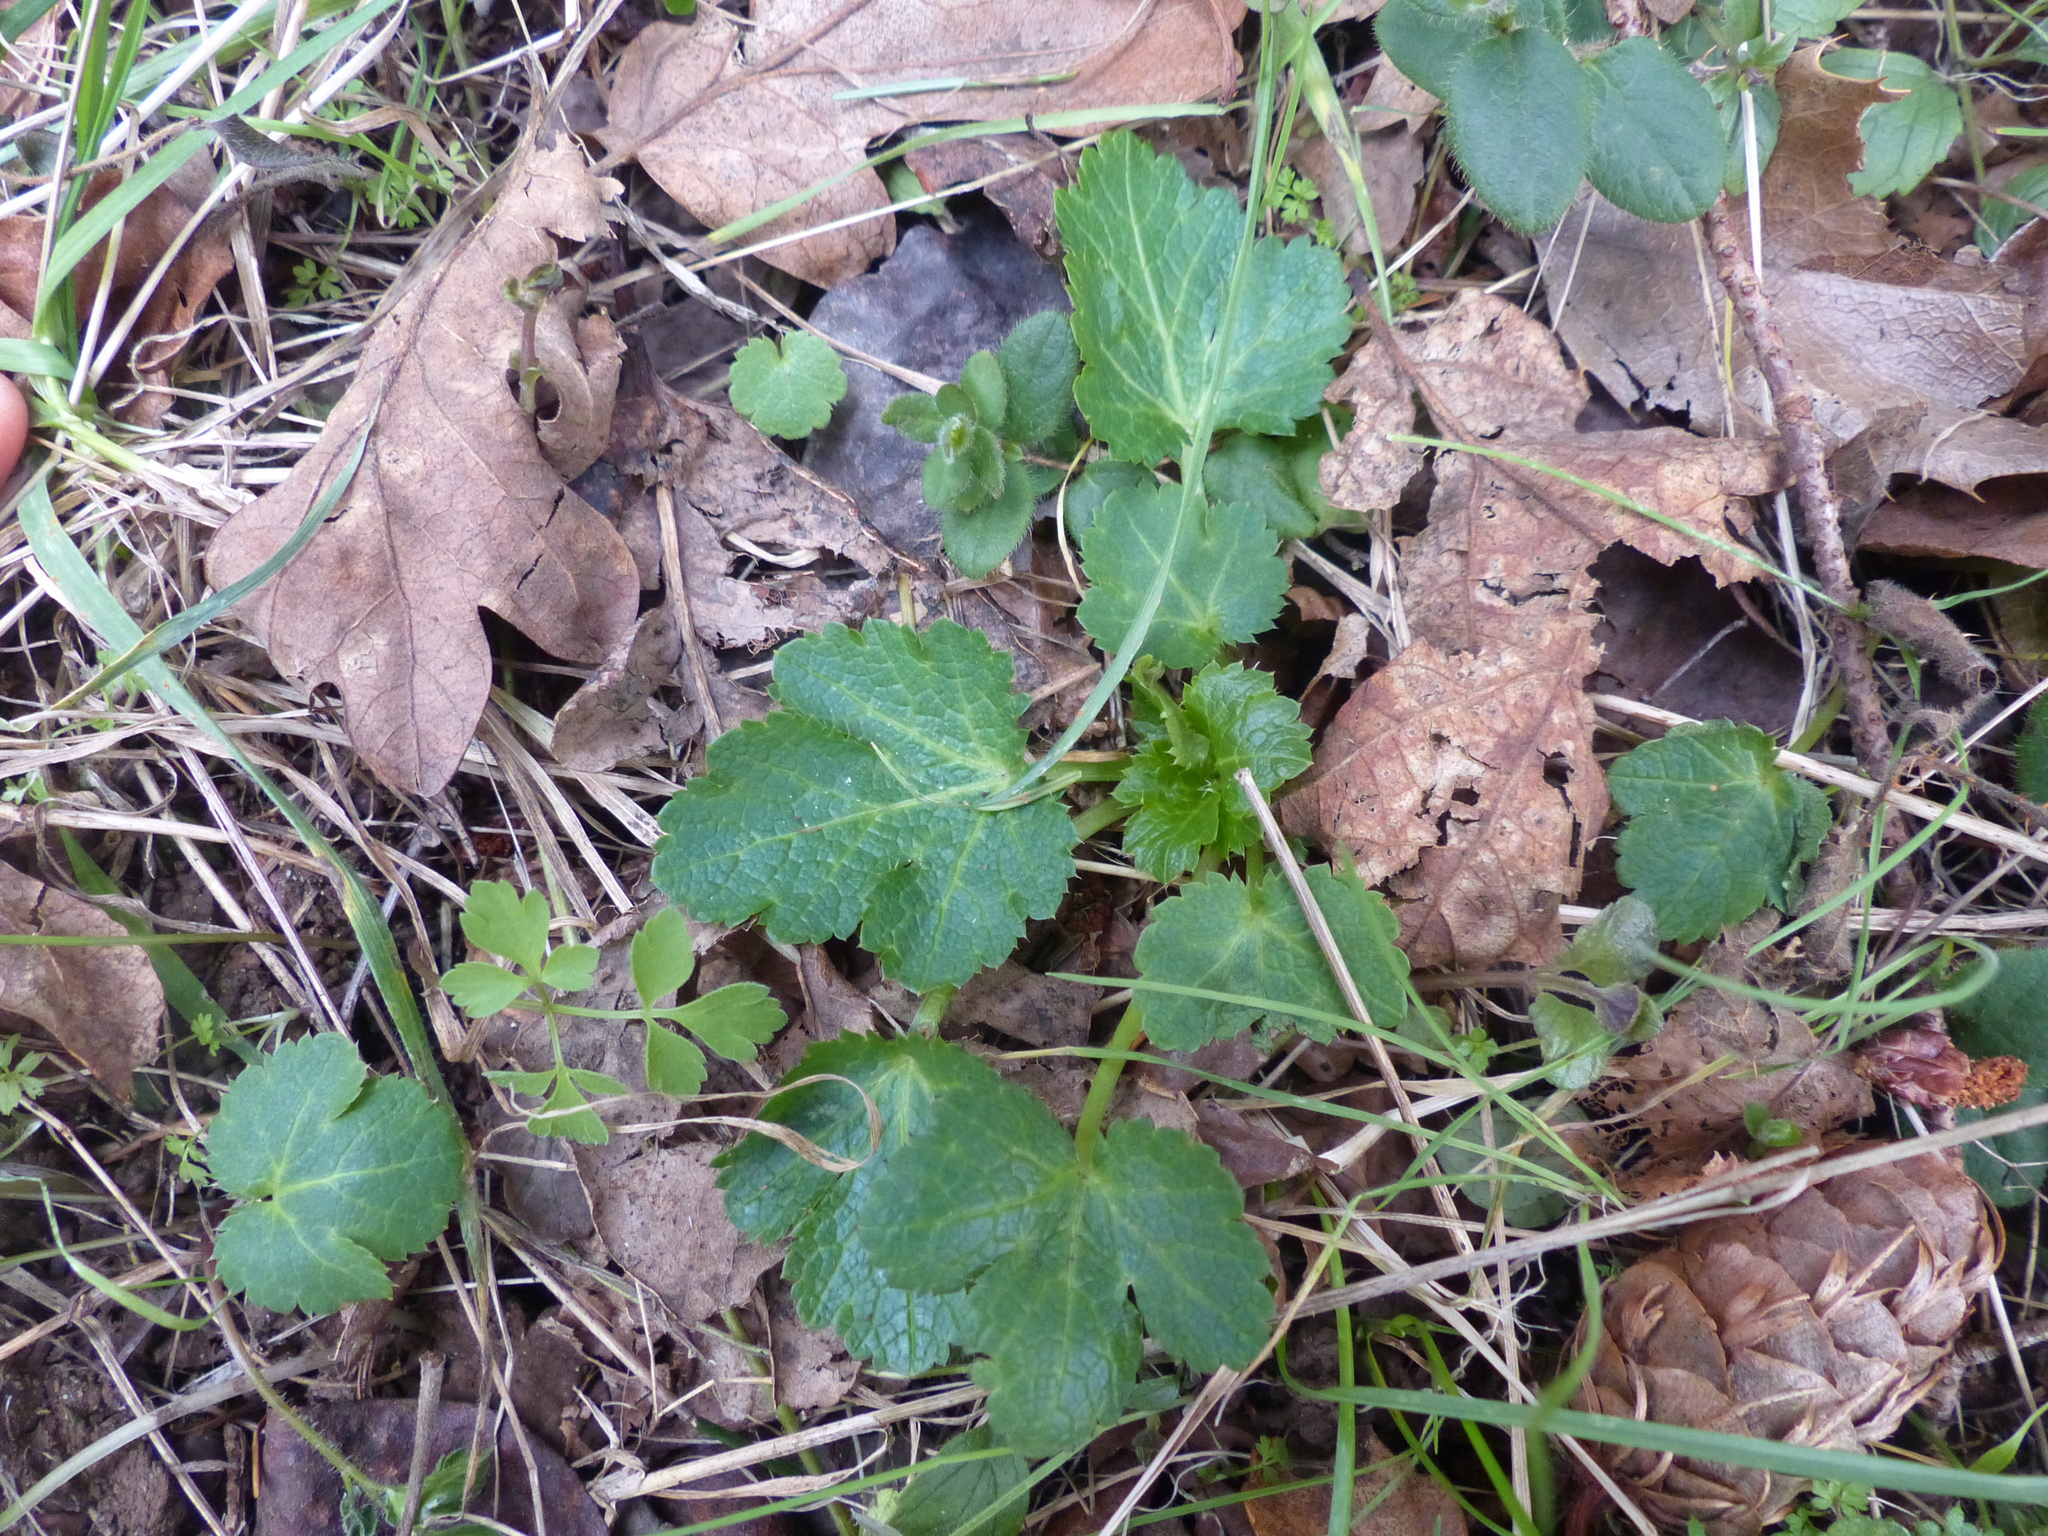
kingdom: Plantae
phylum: Tracheophyta
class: Magnoliopsida
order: Apiales
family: Apiaceae
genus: Sanicula
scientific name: Sanicula crassicaulis
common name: Western snakeroot
